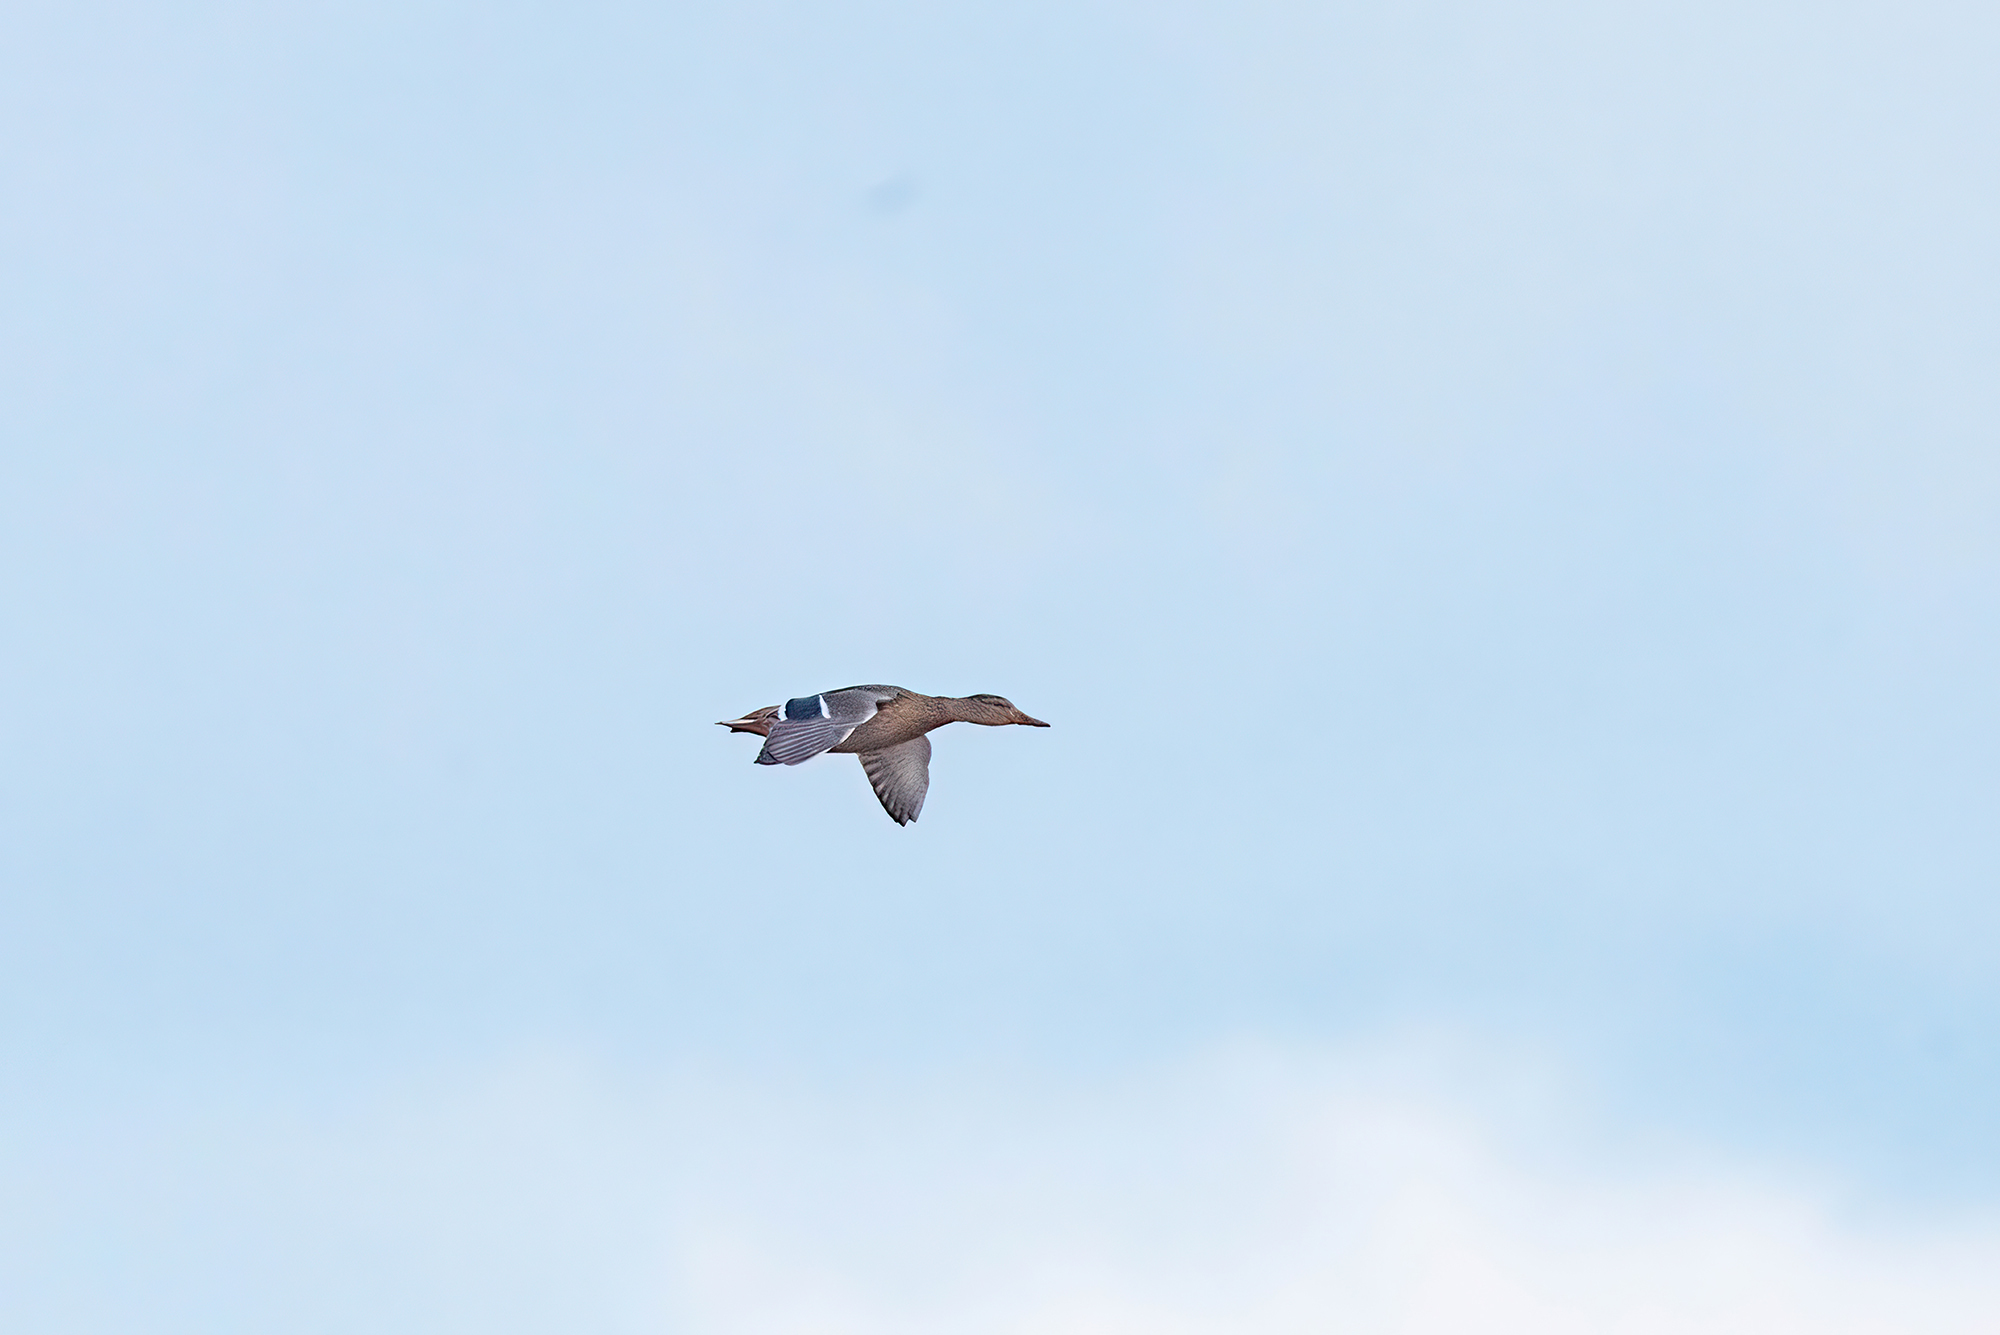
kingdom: Animalia
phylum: Chordata
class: Aves
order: Anseriformes
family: Anatidae
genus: Anas
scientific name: Anas platyrhynchos
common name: Mallard
